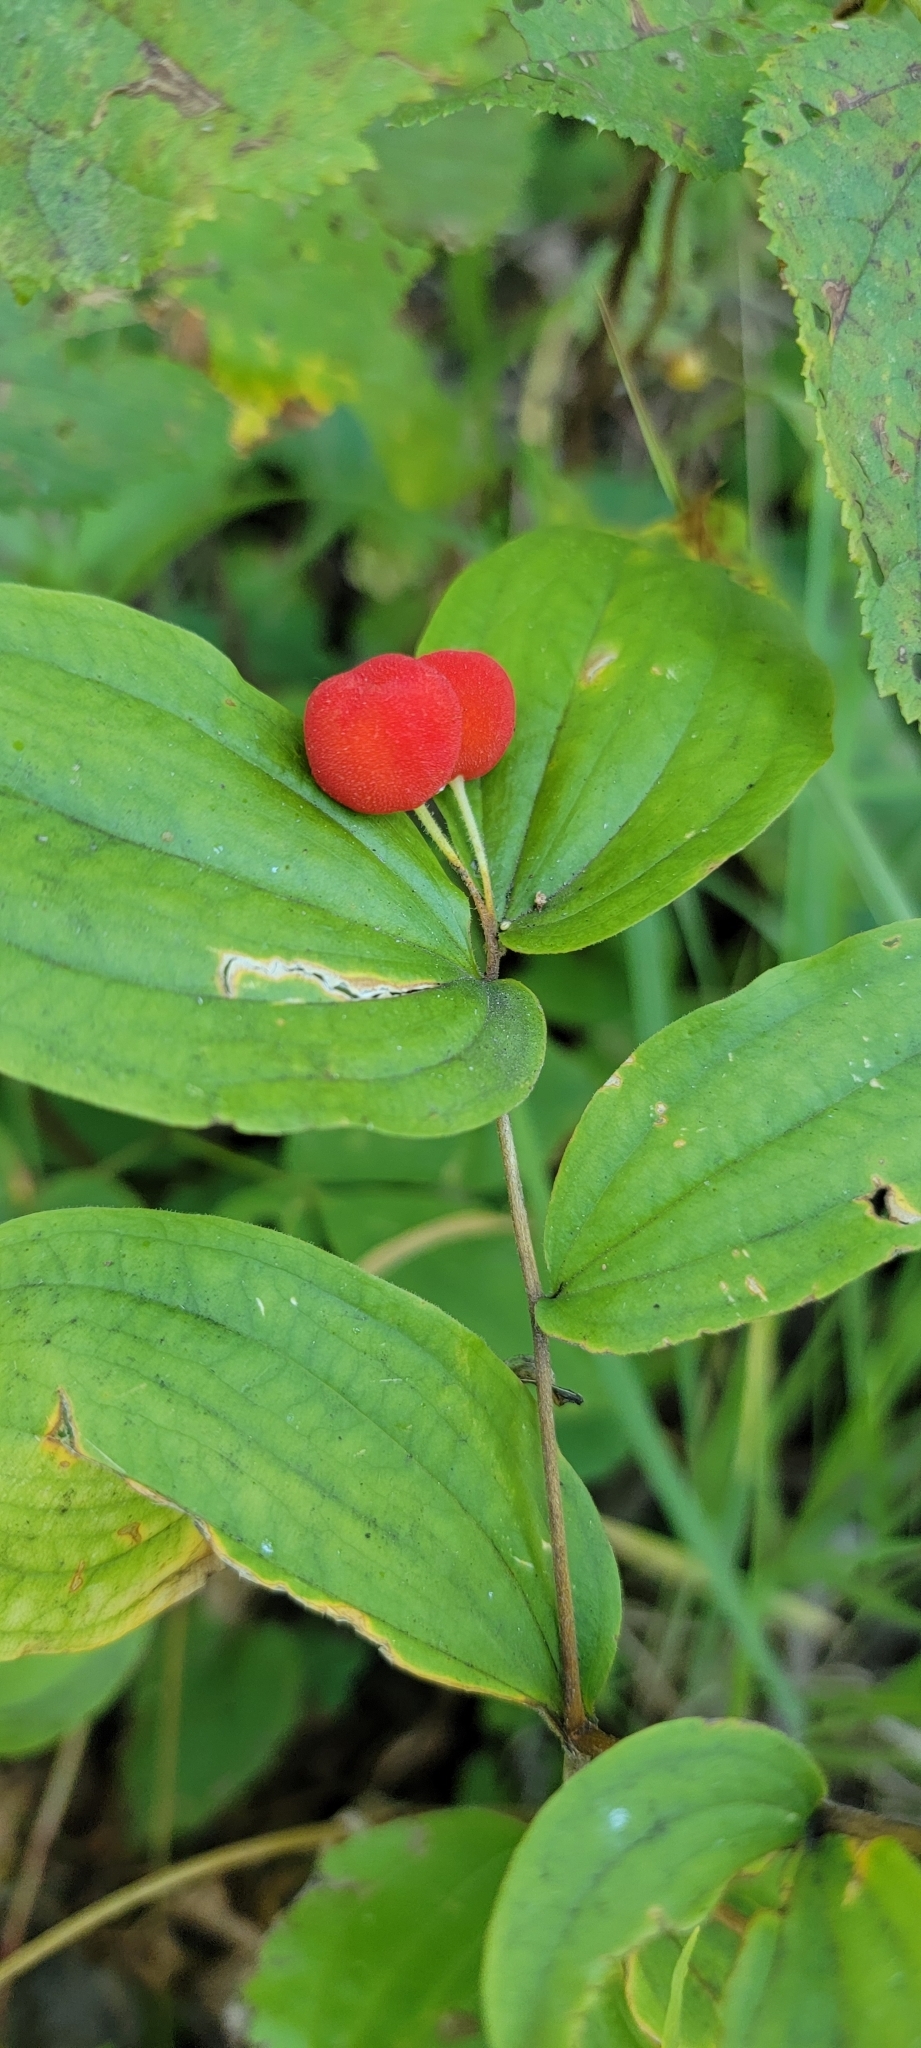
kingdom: Plantae
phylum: Tracheophyta
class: Liliopsida
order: Liliales
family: Liliaceae
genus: Prosartes
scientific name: Prosartes trachycarpa
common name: Rough-fruit fairy-bells
